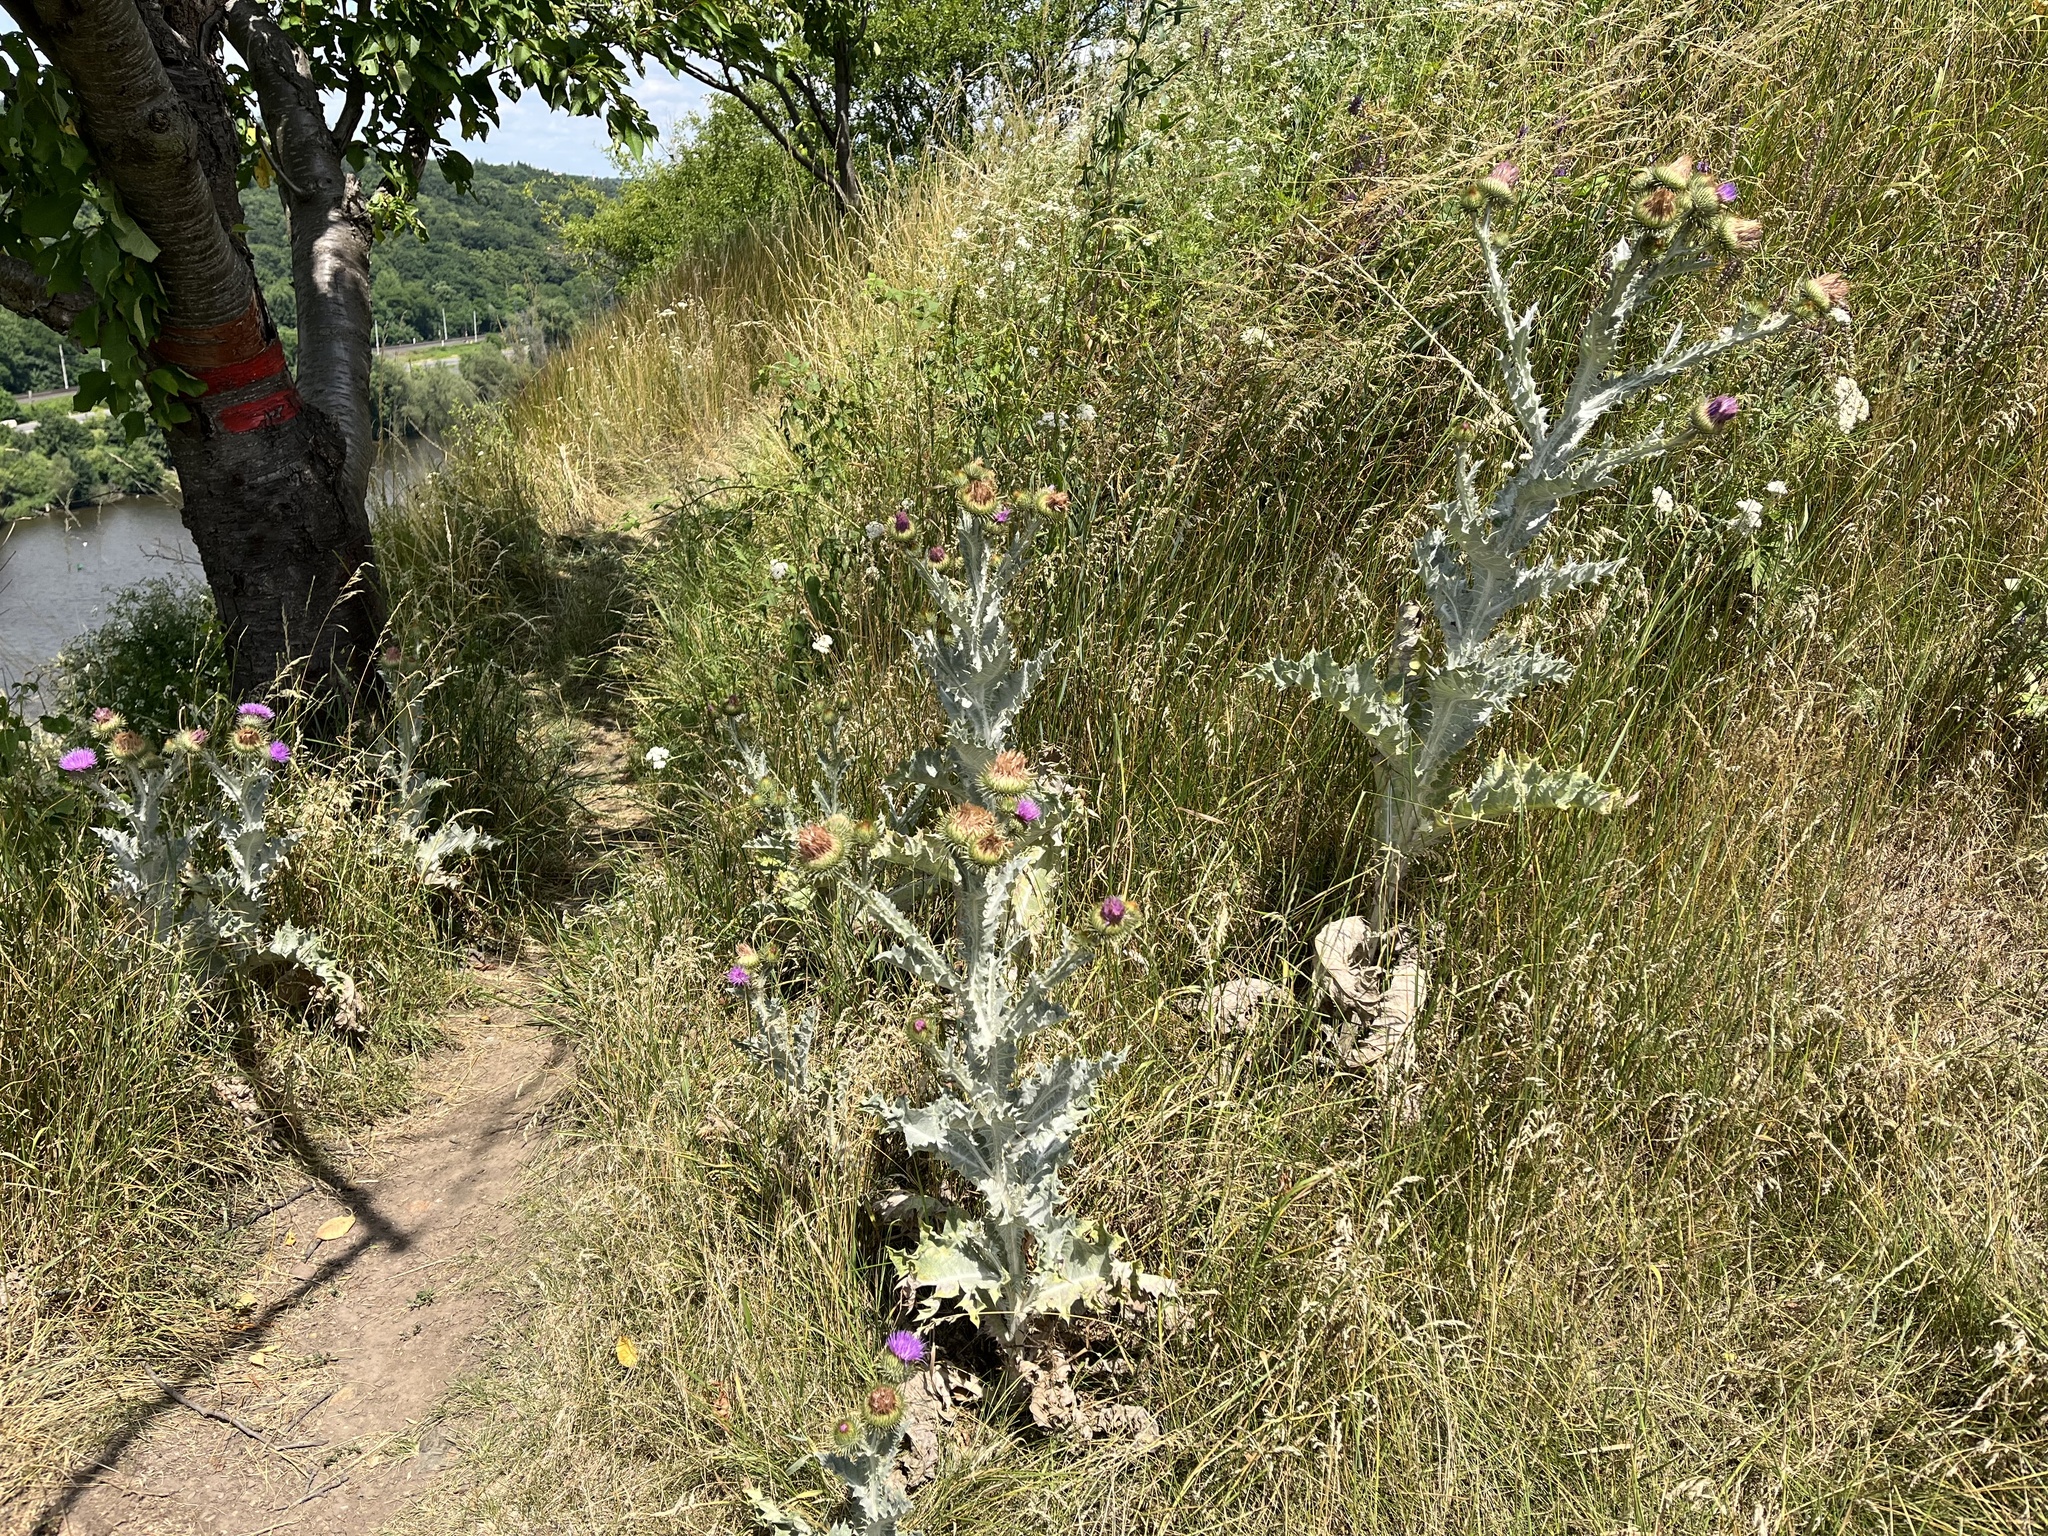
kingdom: Plantae
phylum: Tracheophyta
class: Magnoliopsida
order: Asterales
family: Asteraceae
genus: Onopordum
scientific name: Onopordum acanthium
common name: Scotch thistle
